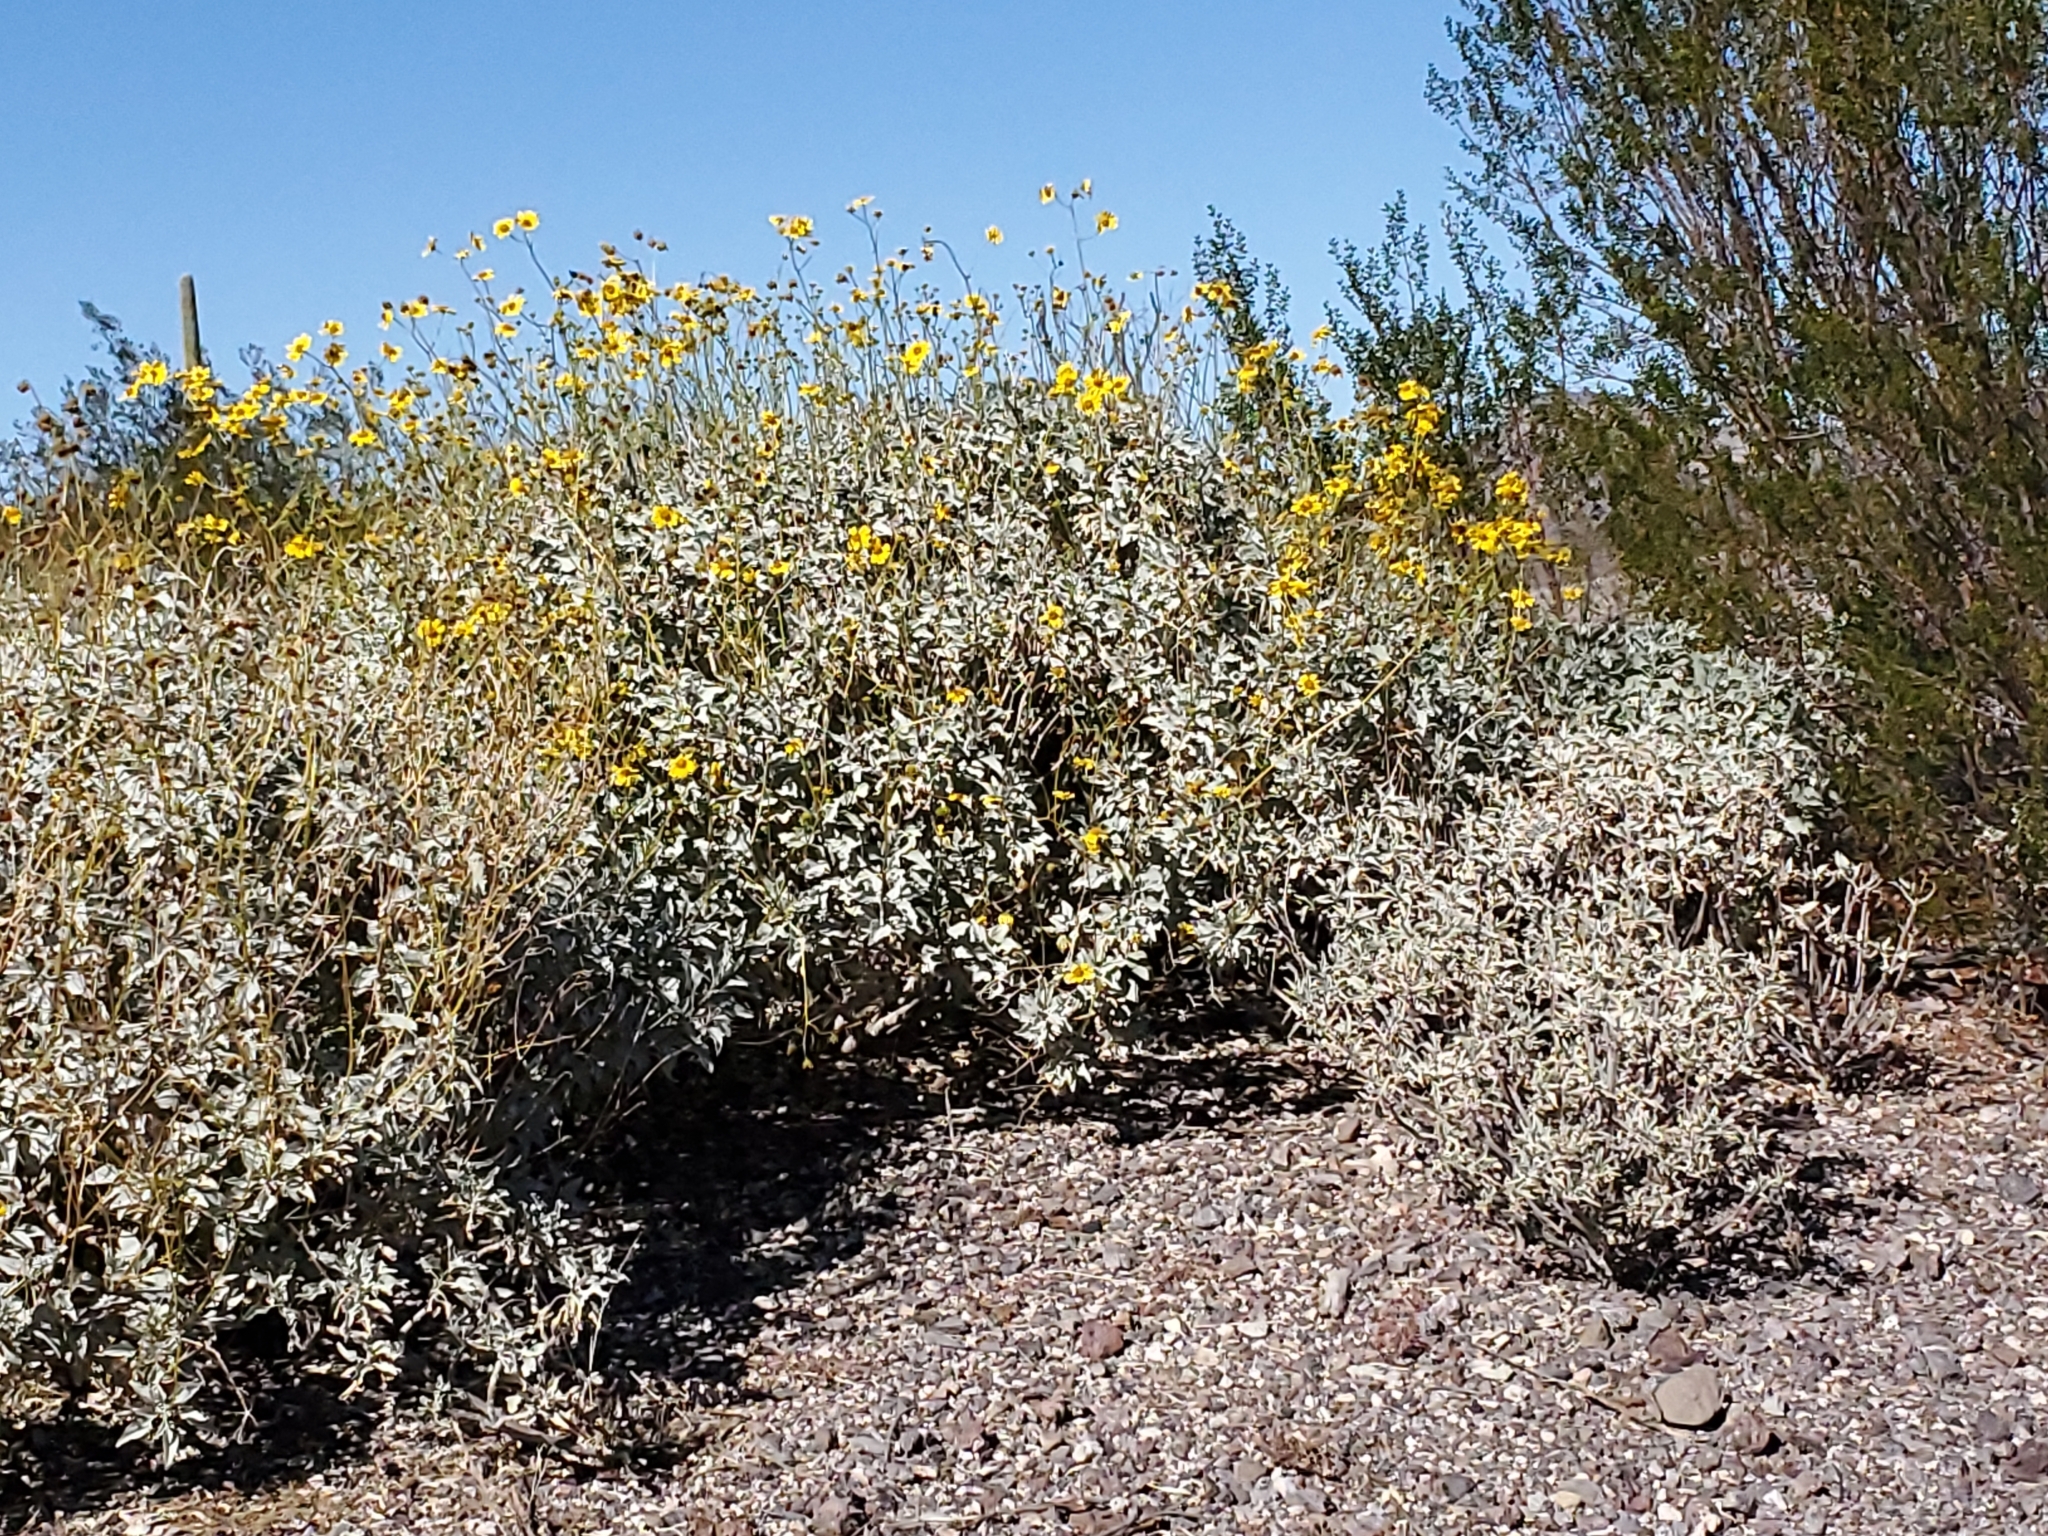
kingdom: Plantae
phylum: Tracheophyta
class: Magnoliopsida
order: Asterales
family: Asteraceae
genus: Encelia
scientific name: Encelia farinosa
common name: Brittlebush
